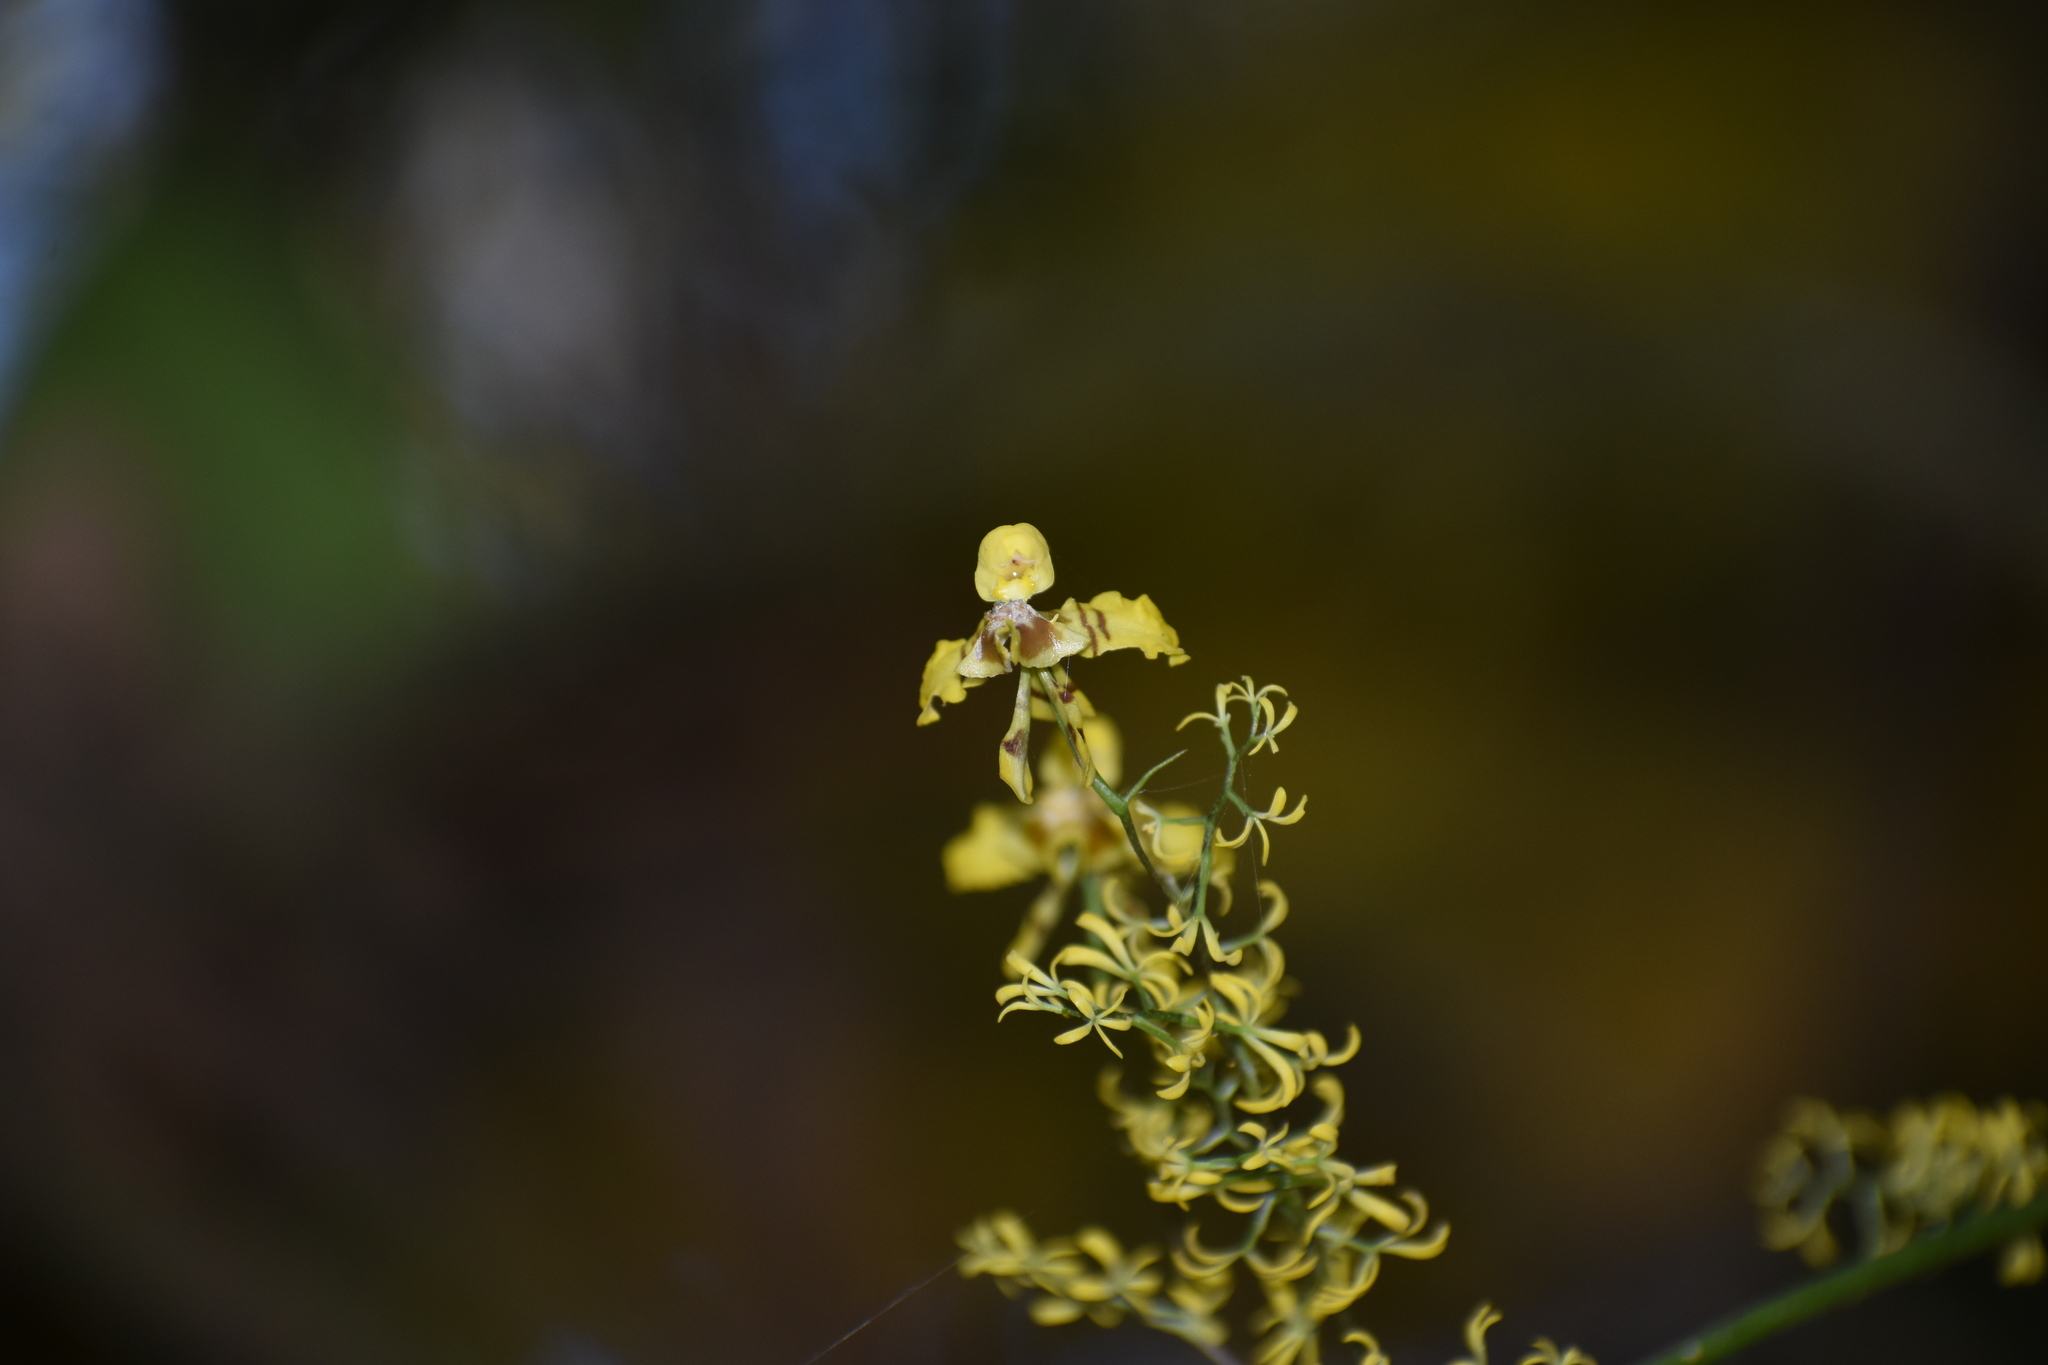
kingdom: Plantae
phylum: Tracheophyta
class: Liliopsida
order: Asparagales
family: Orchidaceae
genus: Oncidium
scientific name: Oncidium ligiae
